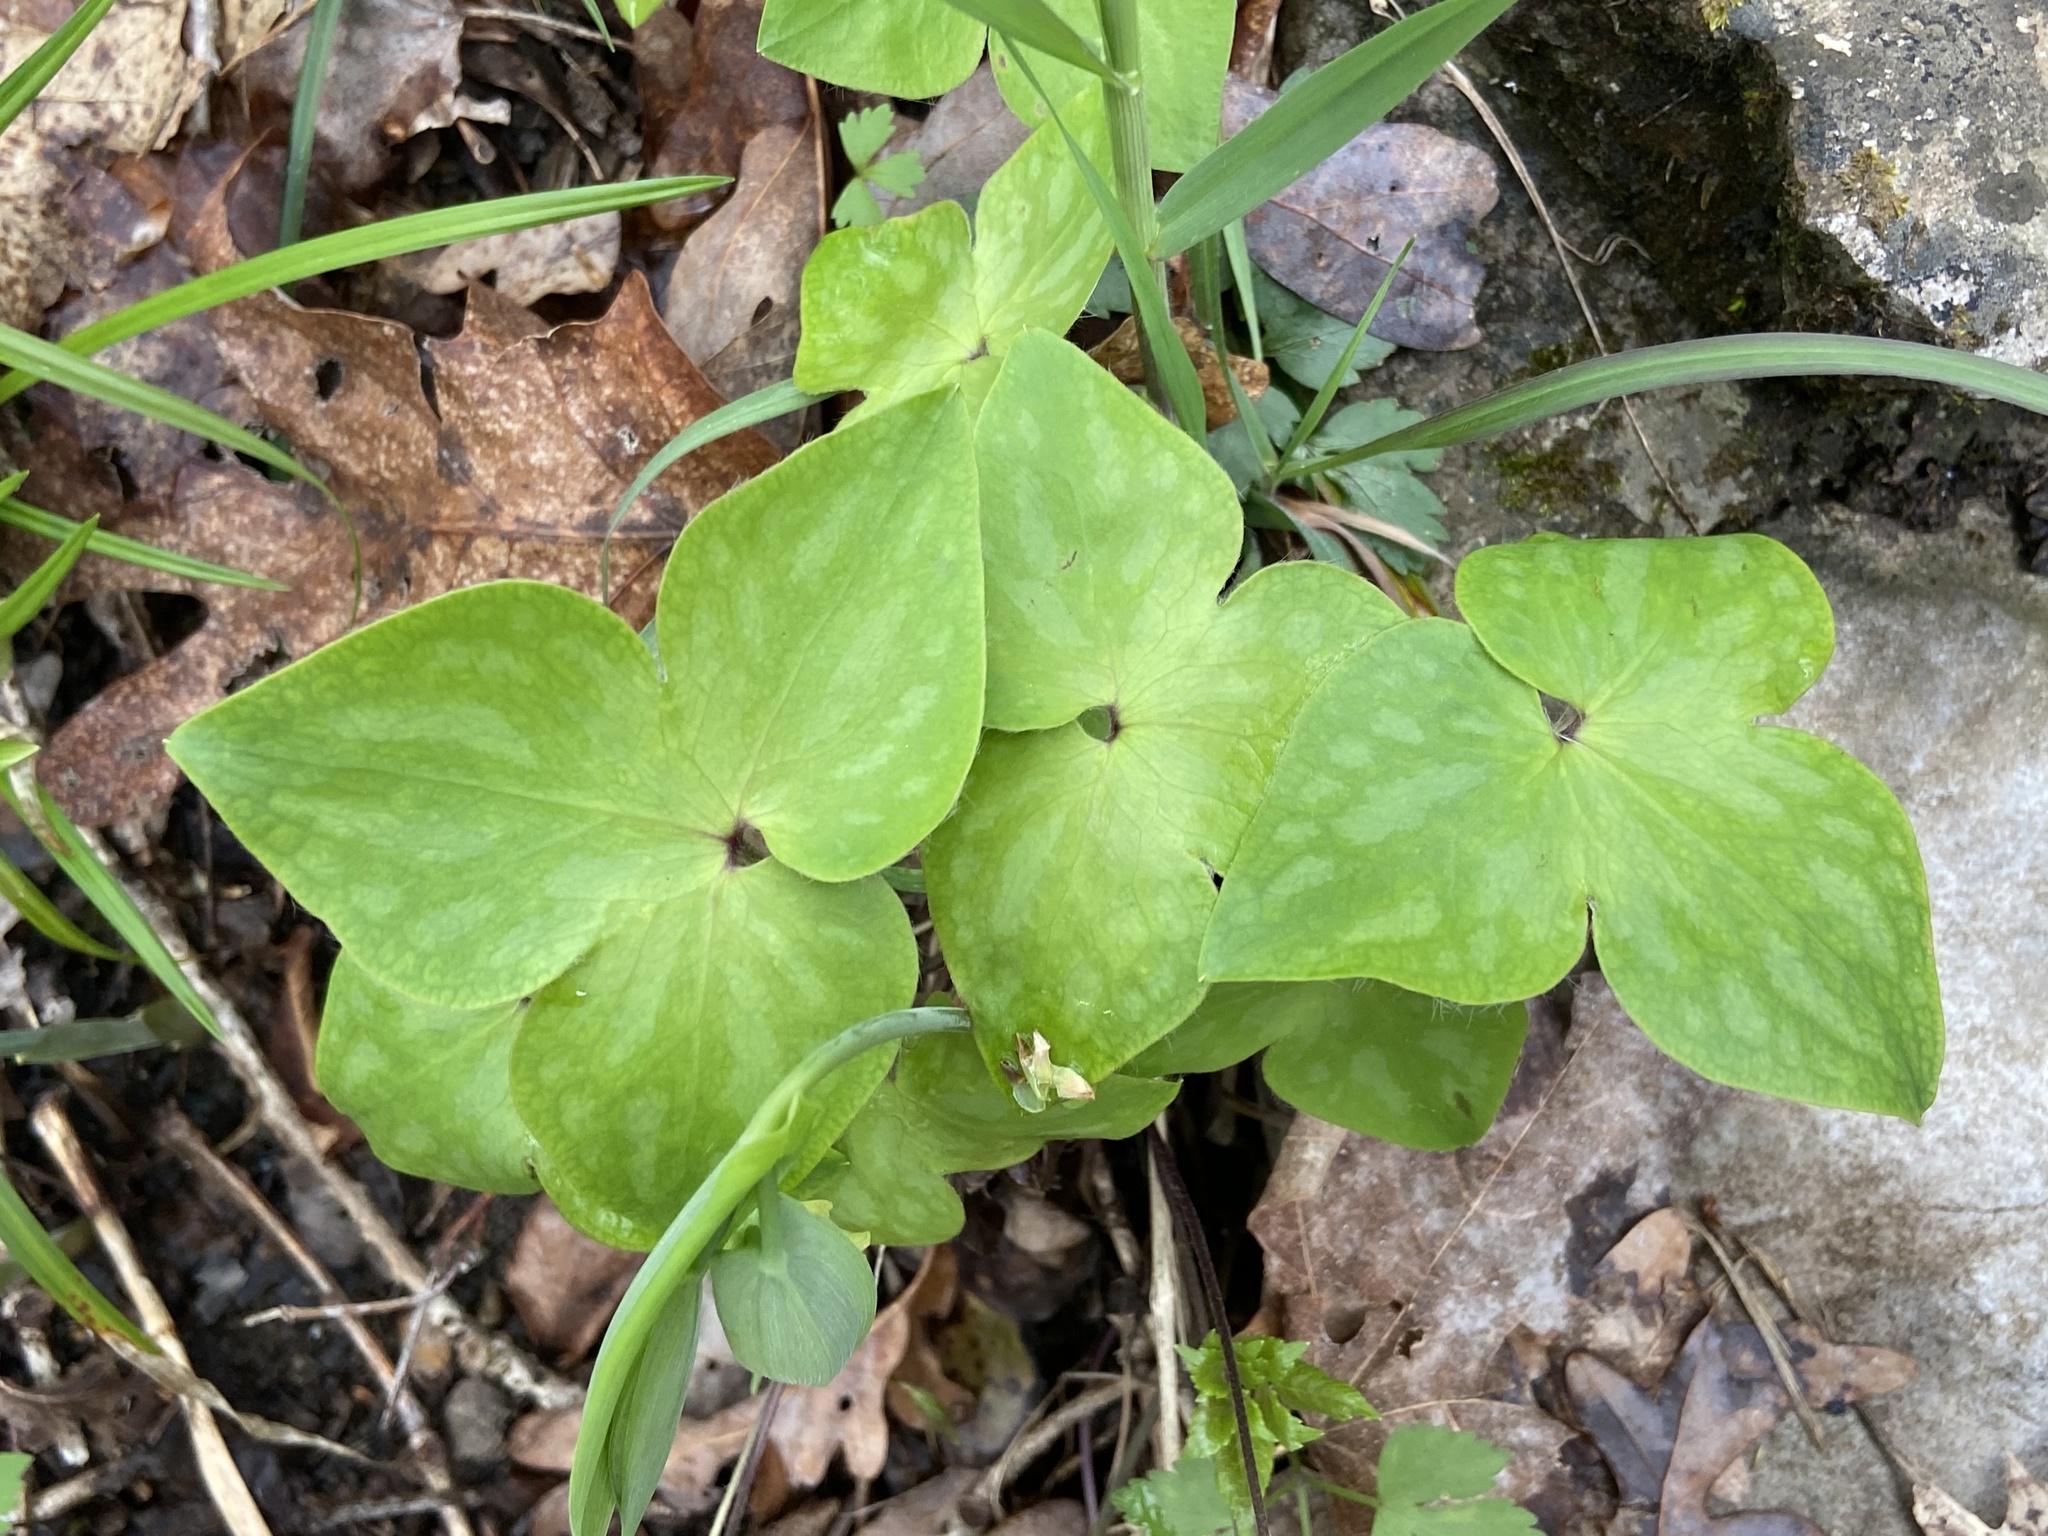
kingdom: Plantae
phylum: Tracheophyta
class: Magnoliopsida
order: Ranunculales
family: Ranunculaceae
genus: Hepatica
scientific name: Hepatica acutiloba
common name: Sharp-lobed hepatica
